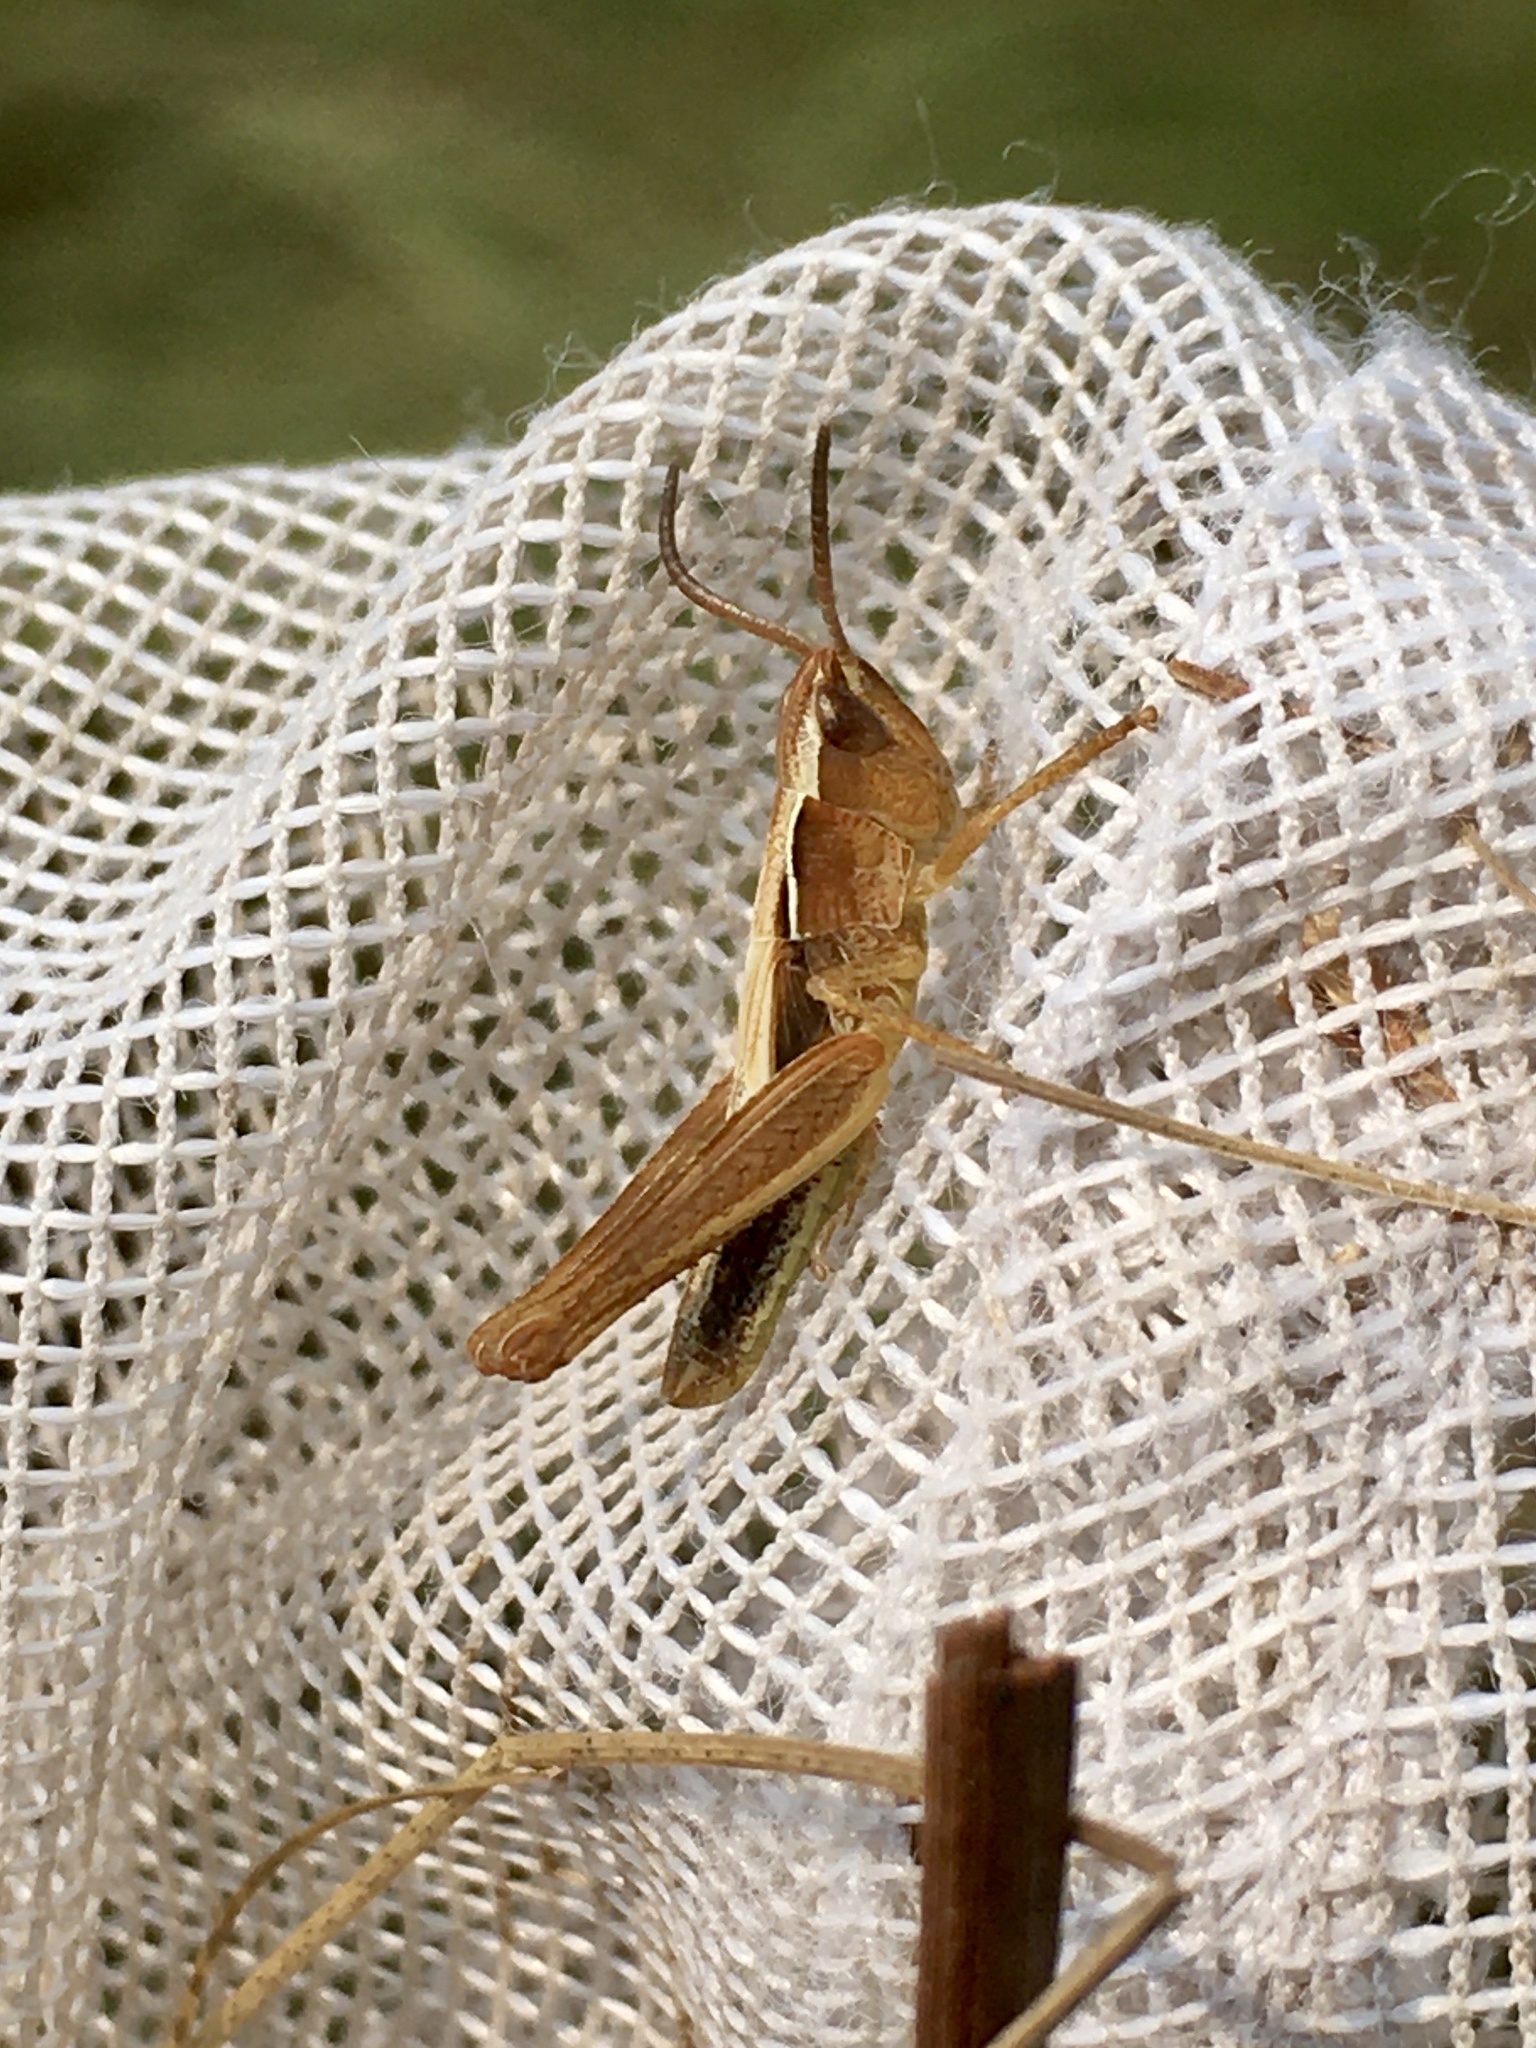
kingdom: Animalia
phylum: Arthropoda
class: Insecta
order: Orthoptera
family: Acrididae
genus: Pseudochorthippus
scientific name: Pseudochorthippus curtipennis
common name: Marsh meadow grasshopper
